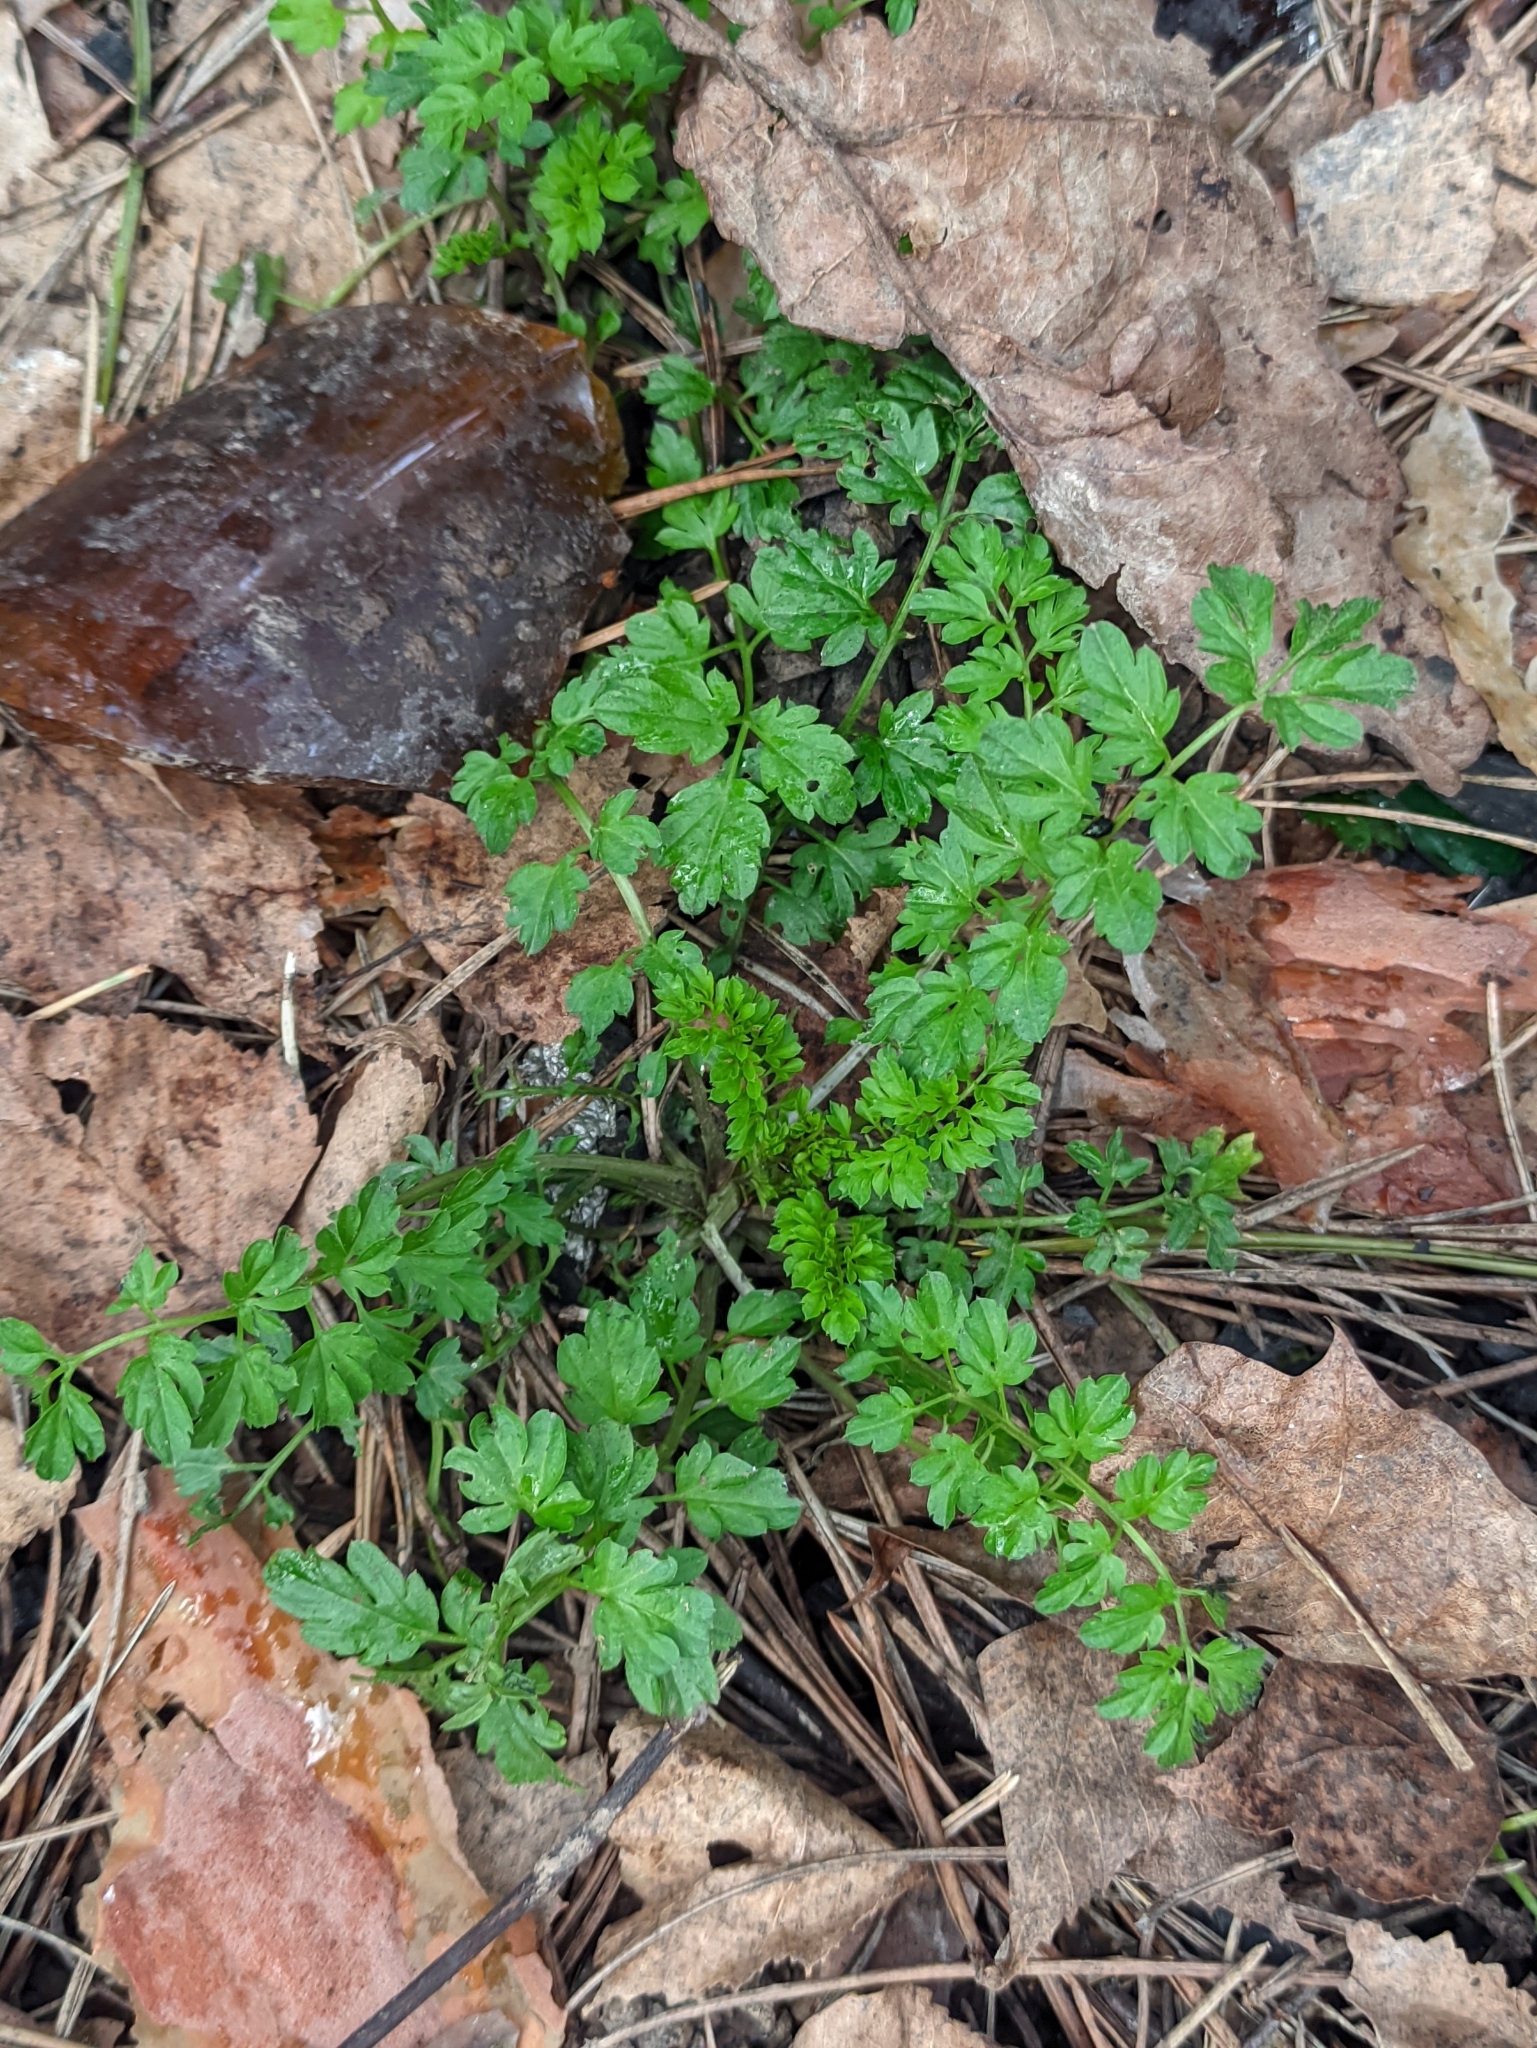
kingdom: Plantae
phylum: Tracheophyta
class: Magnoliopsida
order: Brassicales
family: Brassicaceae
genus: Cardamine
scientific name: Cardamine impatiens
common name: Narrow-leaved bitter-cress
